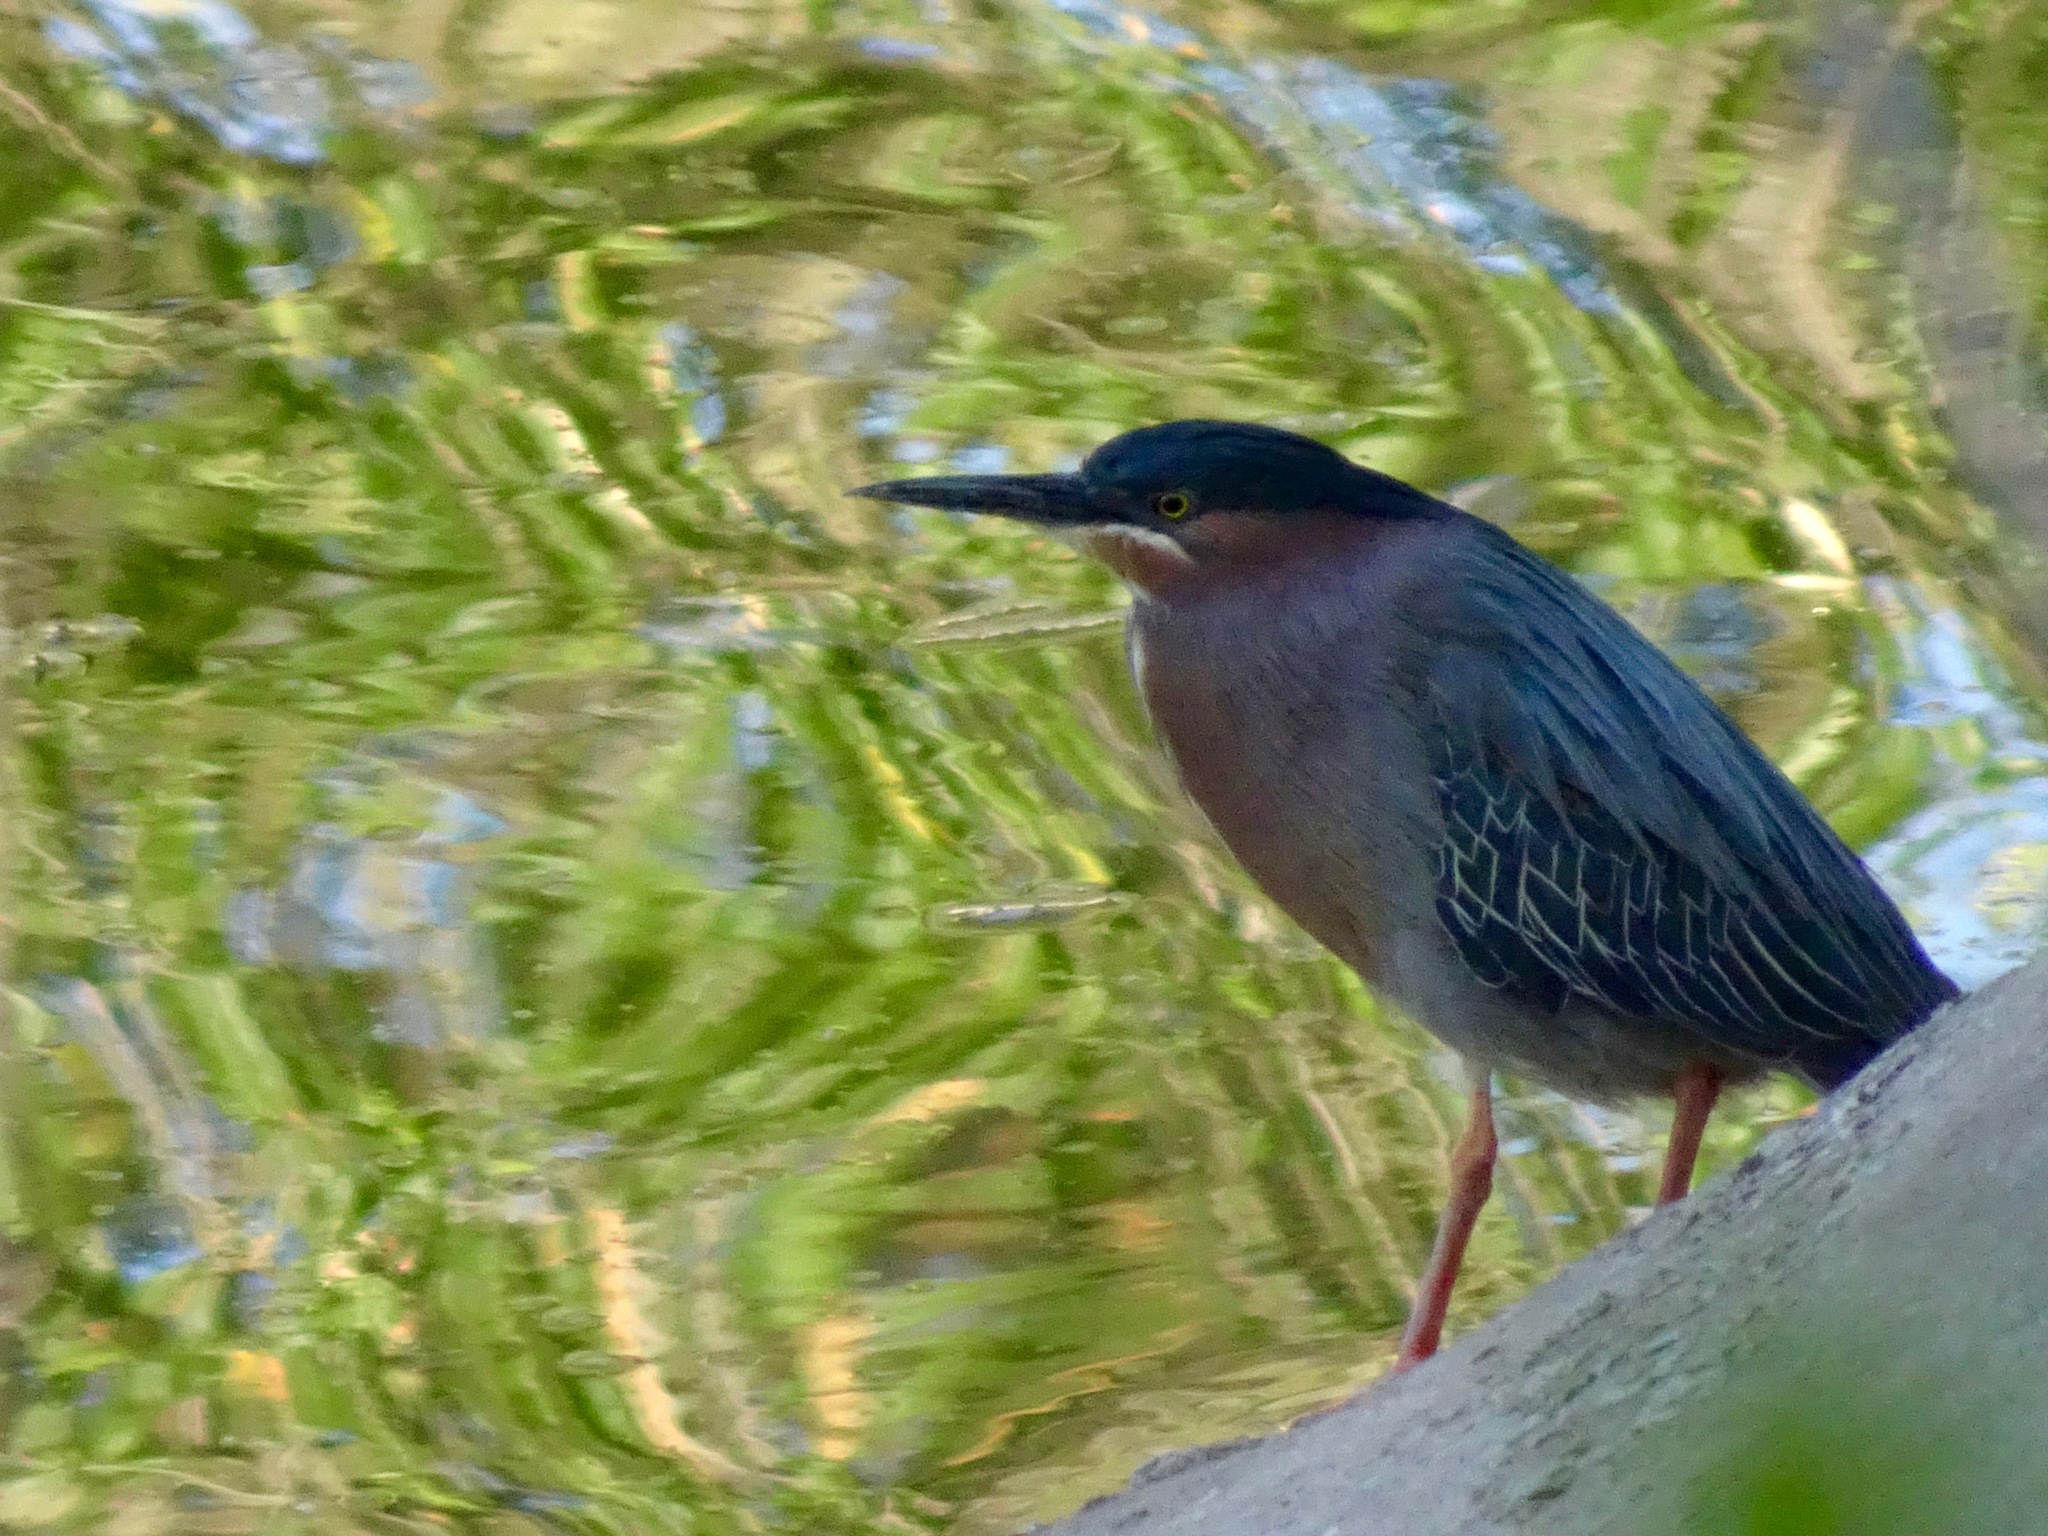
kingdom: Animalia
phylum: Chordata
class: Aves
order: Pelecaniformes
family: Ardeidae
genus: Butorides
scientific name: Butorides virescens
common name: Green heron
